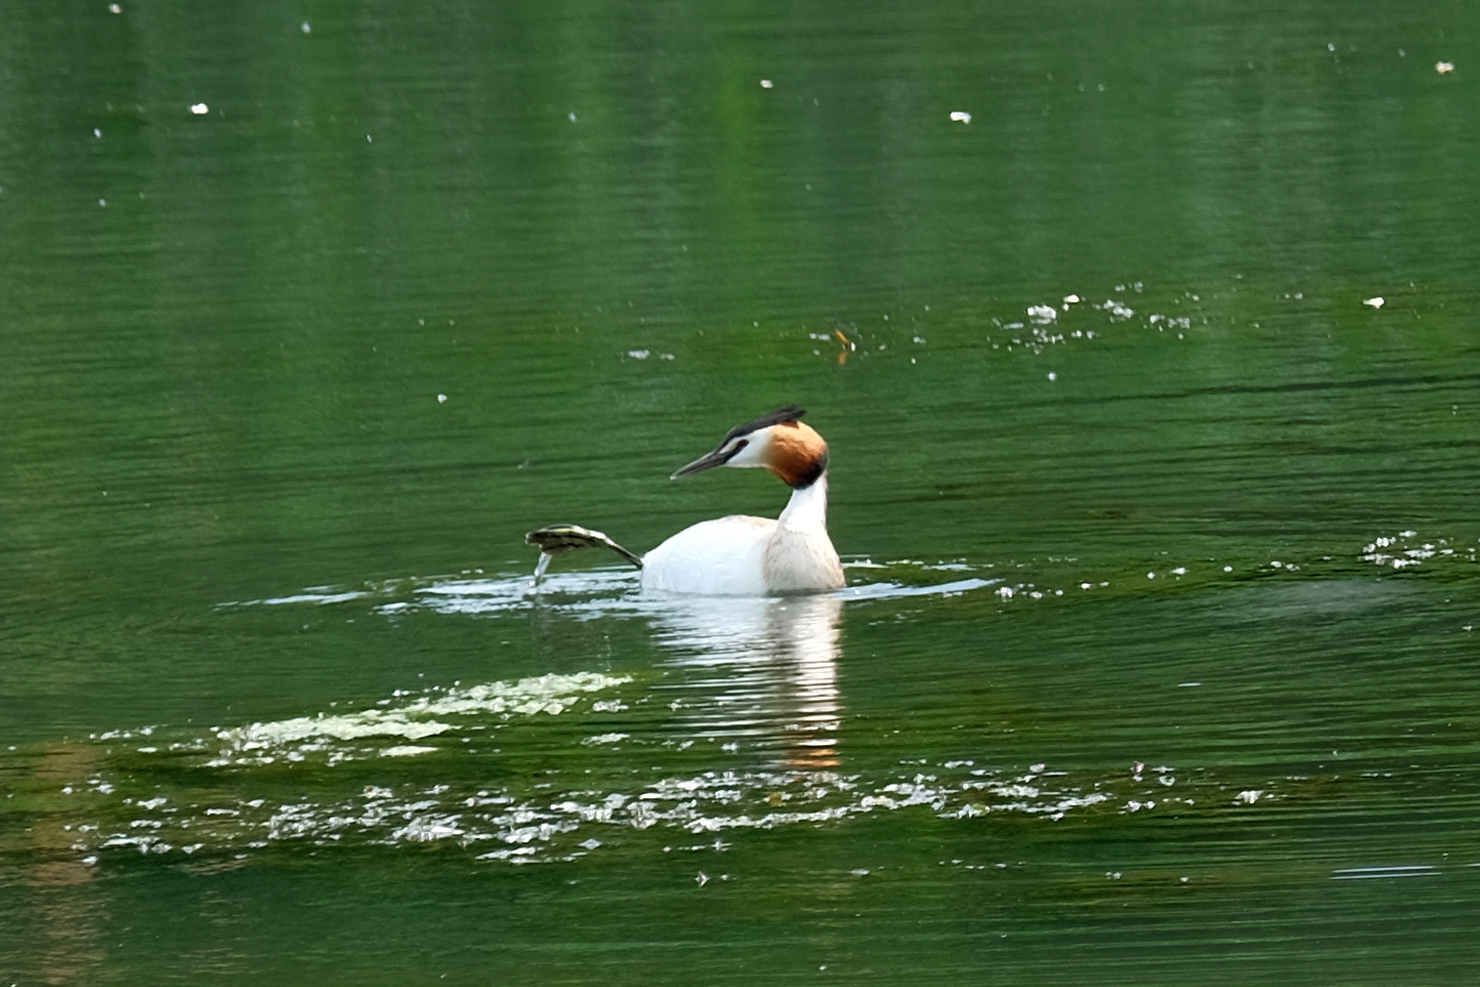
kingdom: Animalia
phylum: Chordata
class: Aves
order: Podicipediformes
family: Podicipedidae
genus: Podiceps
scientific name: Podiceps cristatus
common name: Great crested grebe
